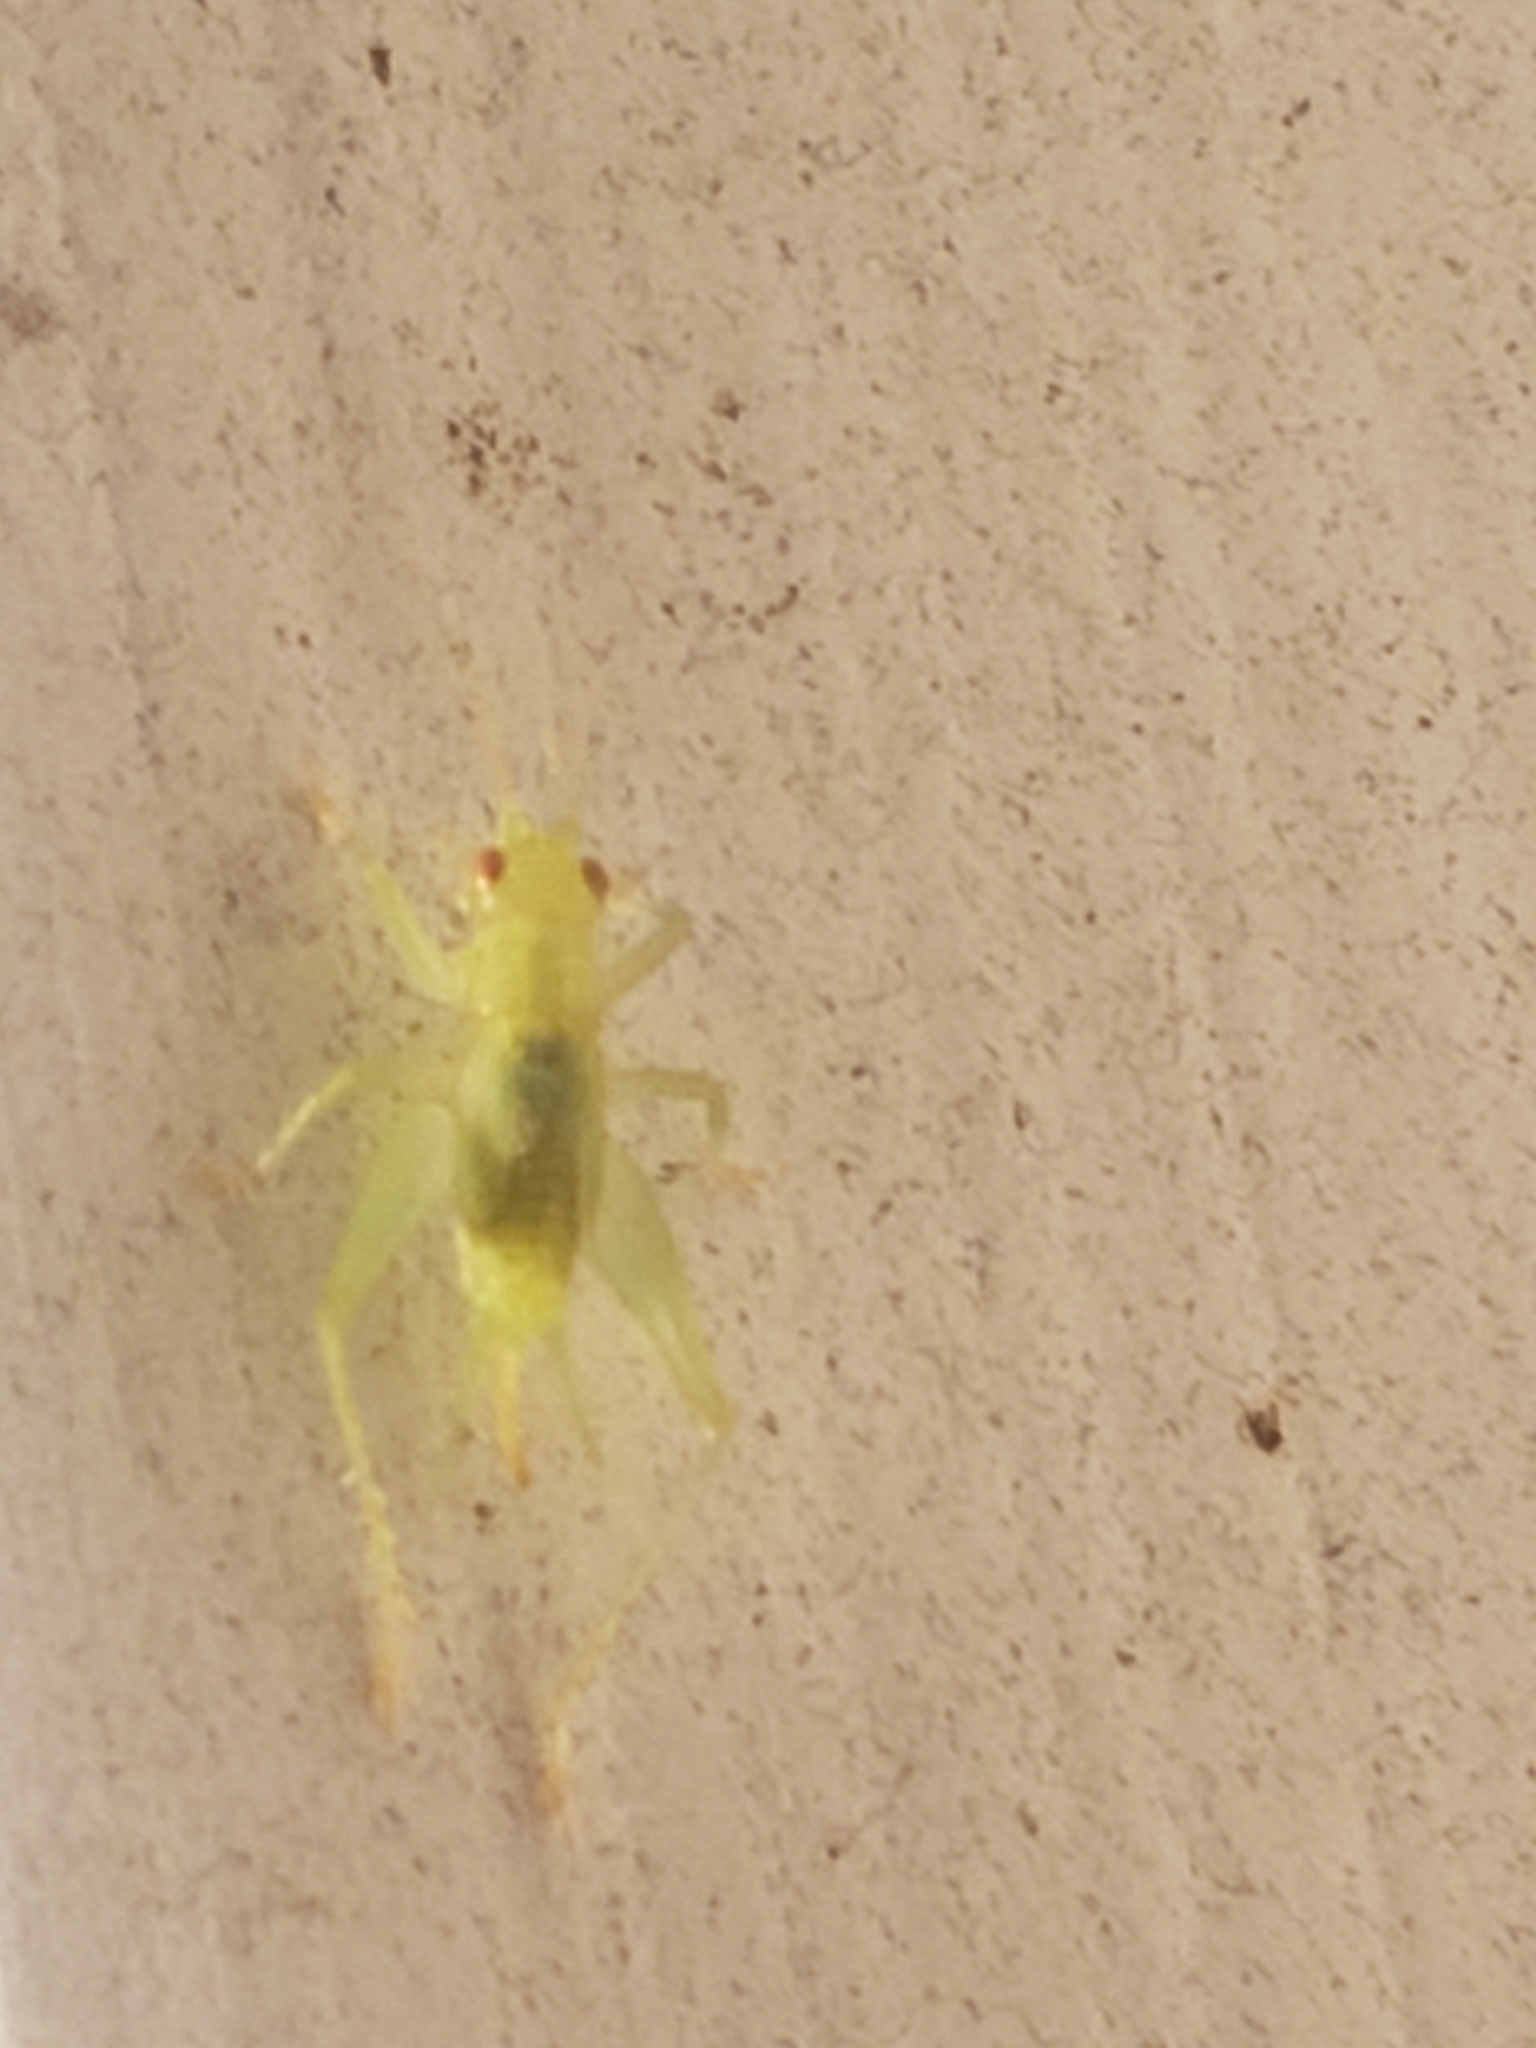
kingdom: Animalia
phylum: Arthropoda
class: Insecta
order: Orthoptera
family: Trigonidiidae
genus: Cyrtoxipha
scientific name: Cyrtoxipha columbiana
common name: Columbian trig
